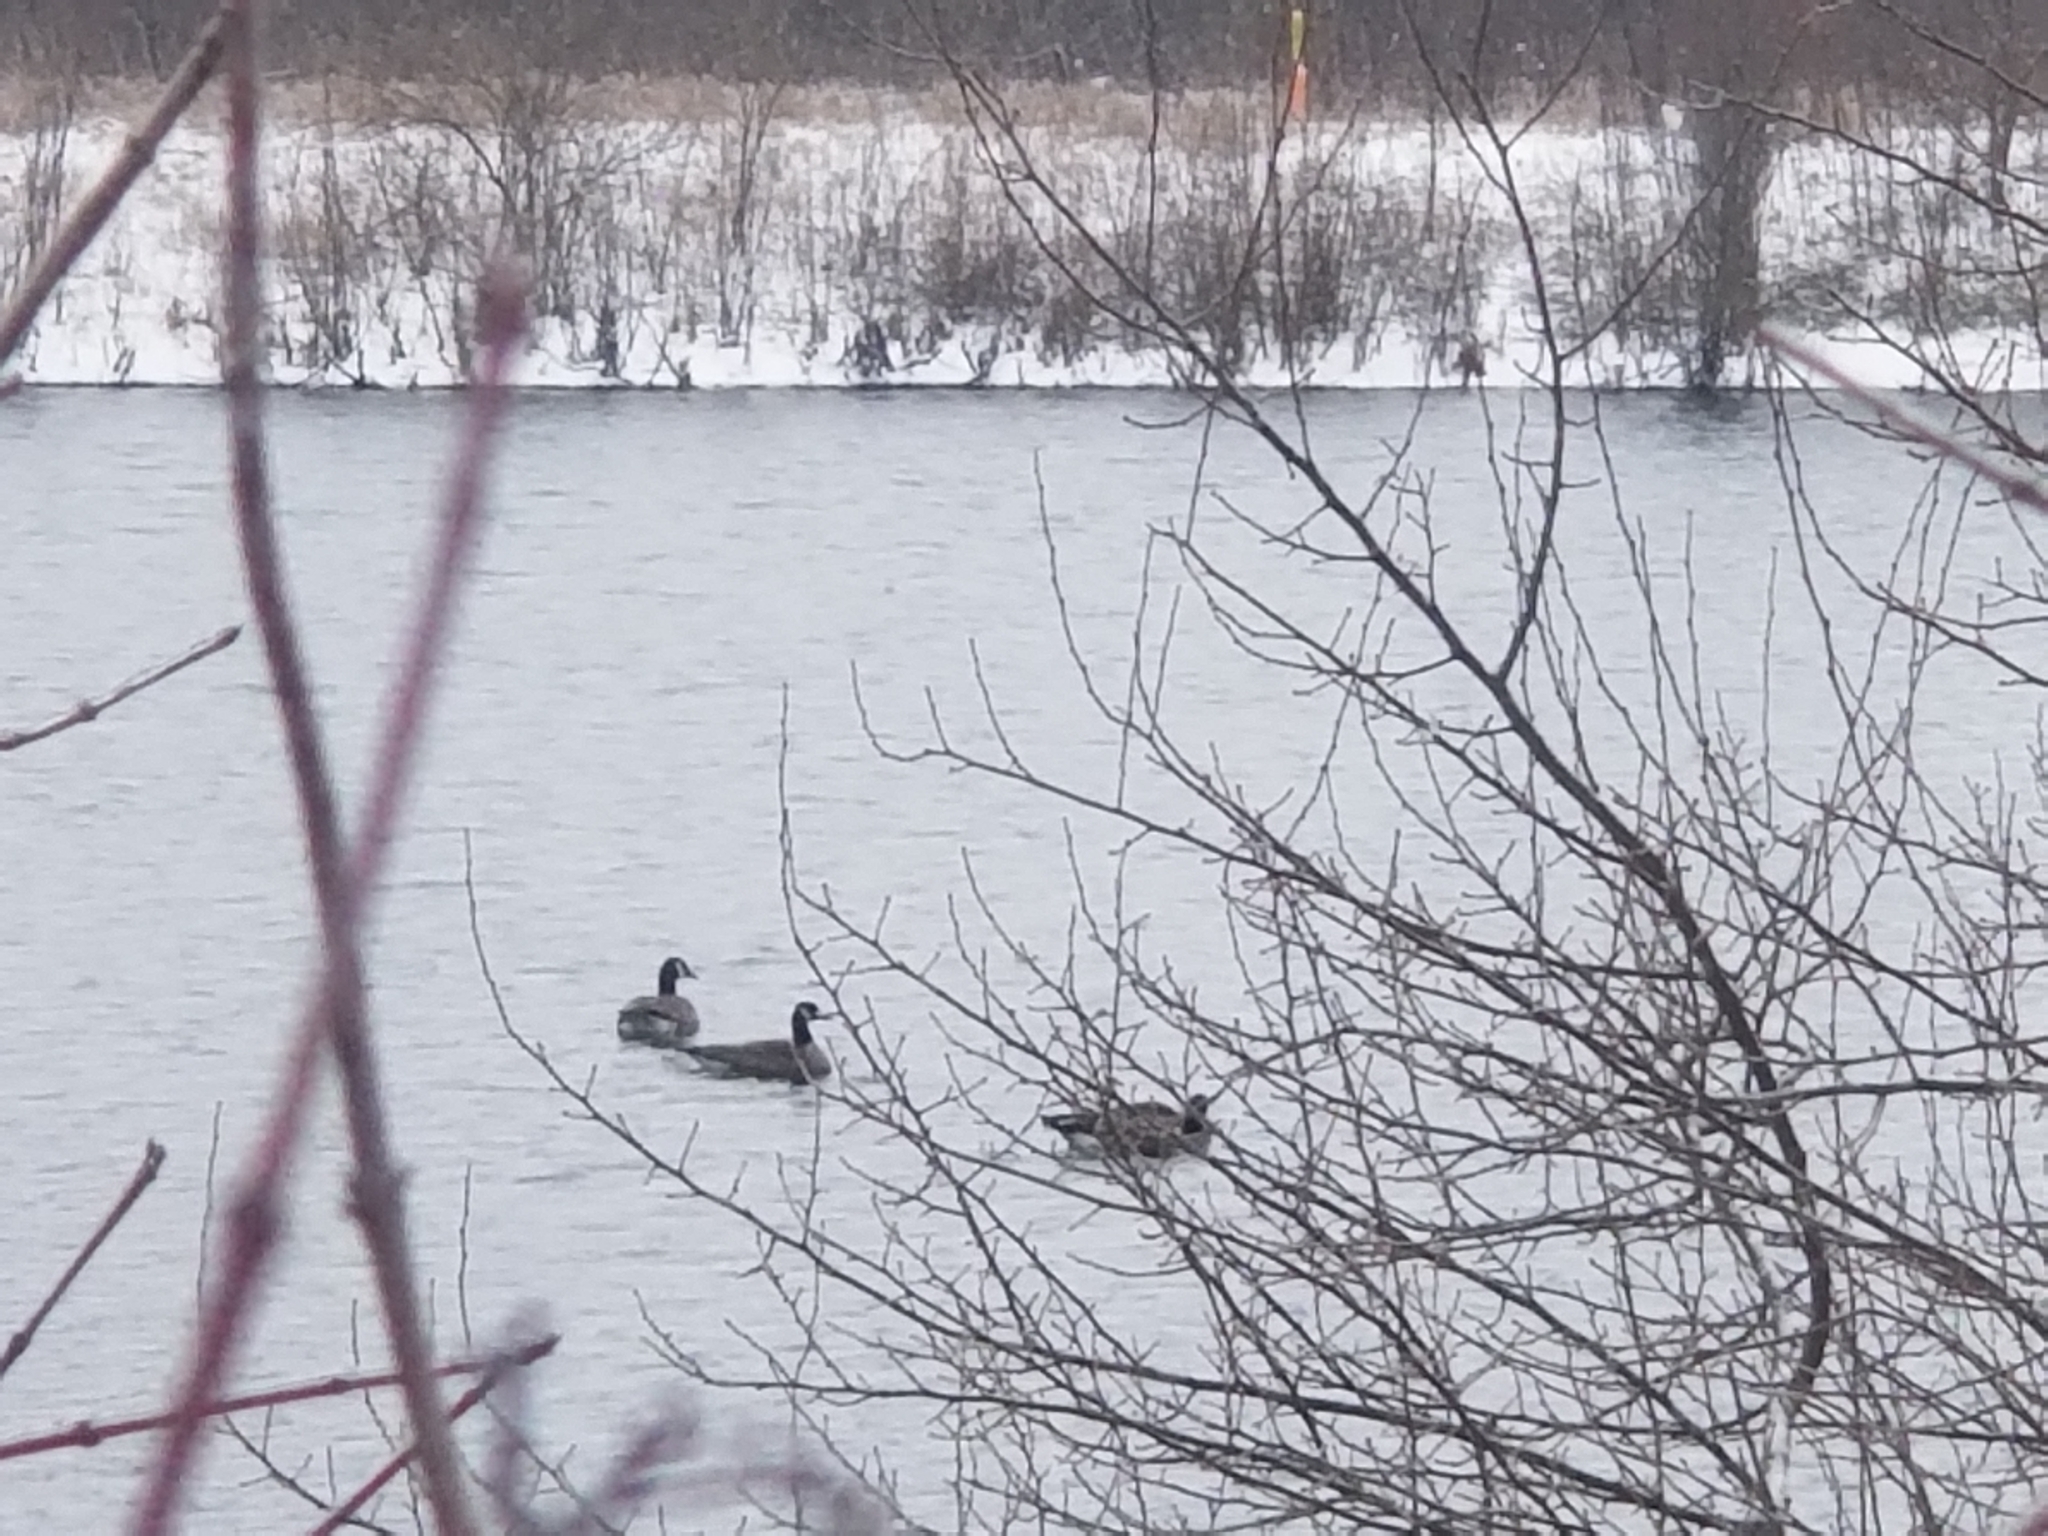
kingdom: Animalia
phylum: Chordata
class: Aves
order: Anseriformes
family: Anatidae
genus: Branta
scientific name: Branta canadensis
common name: Canada goose
